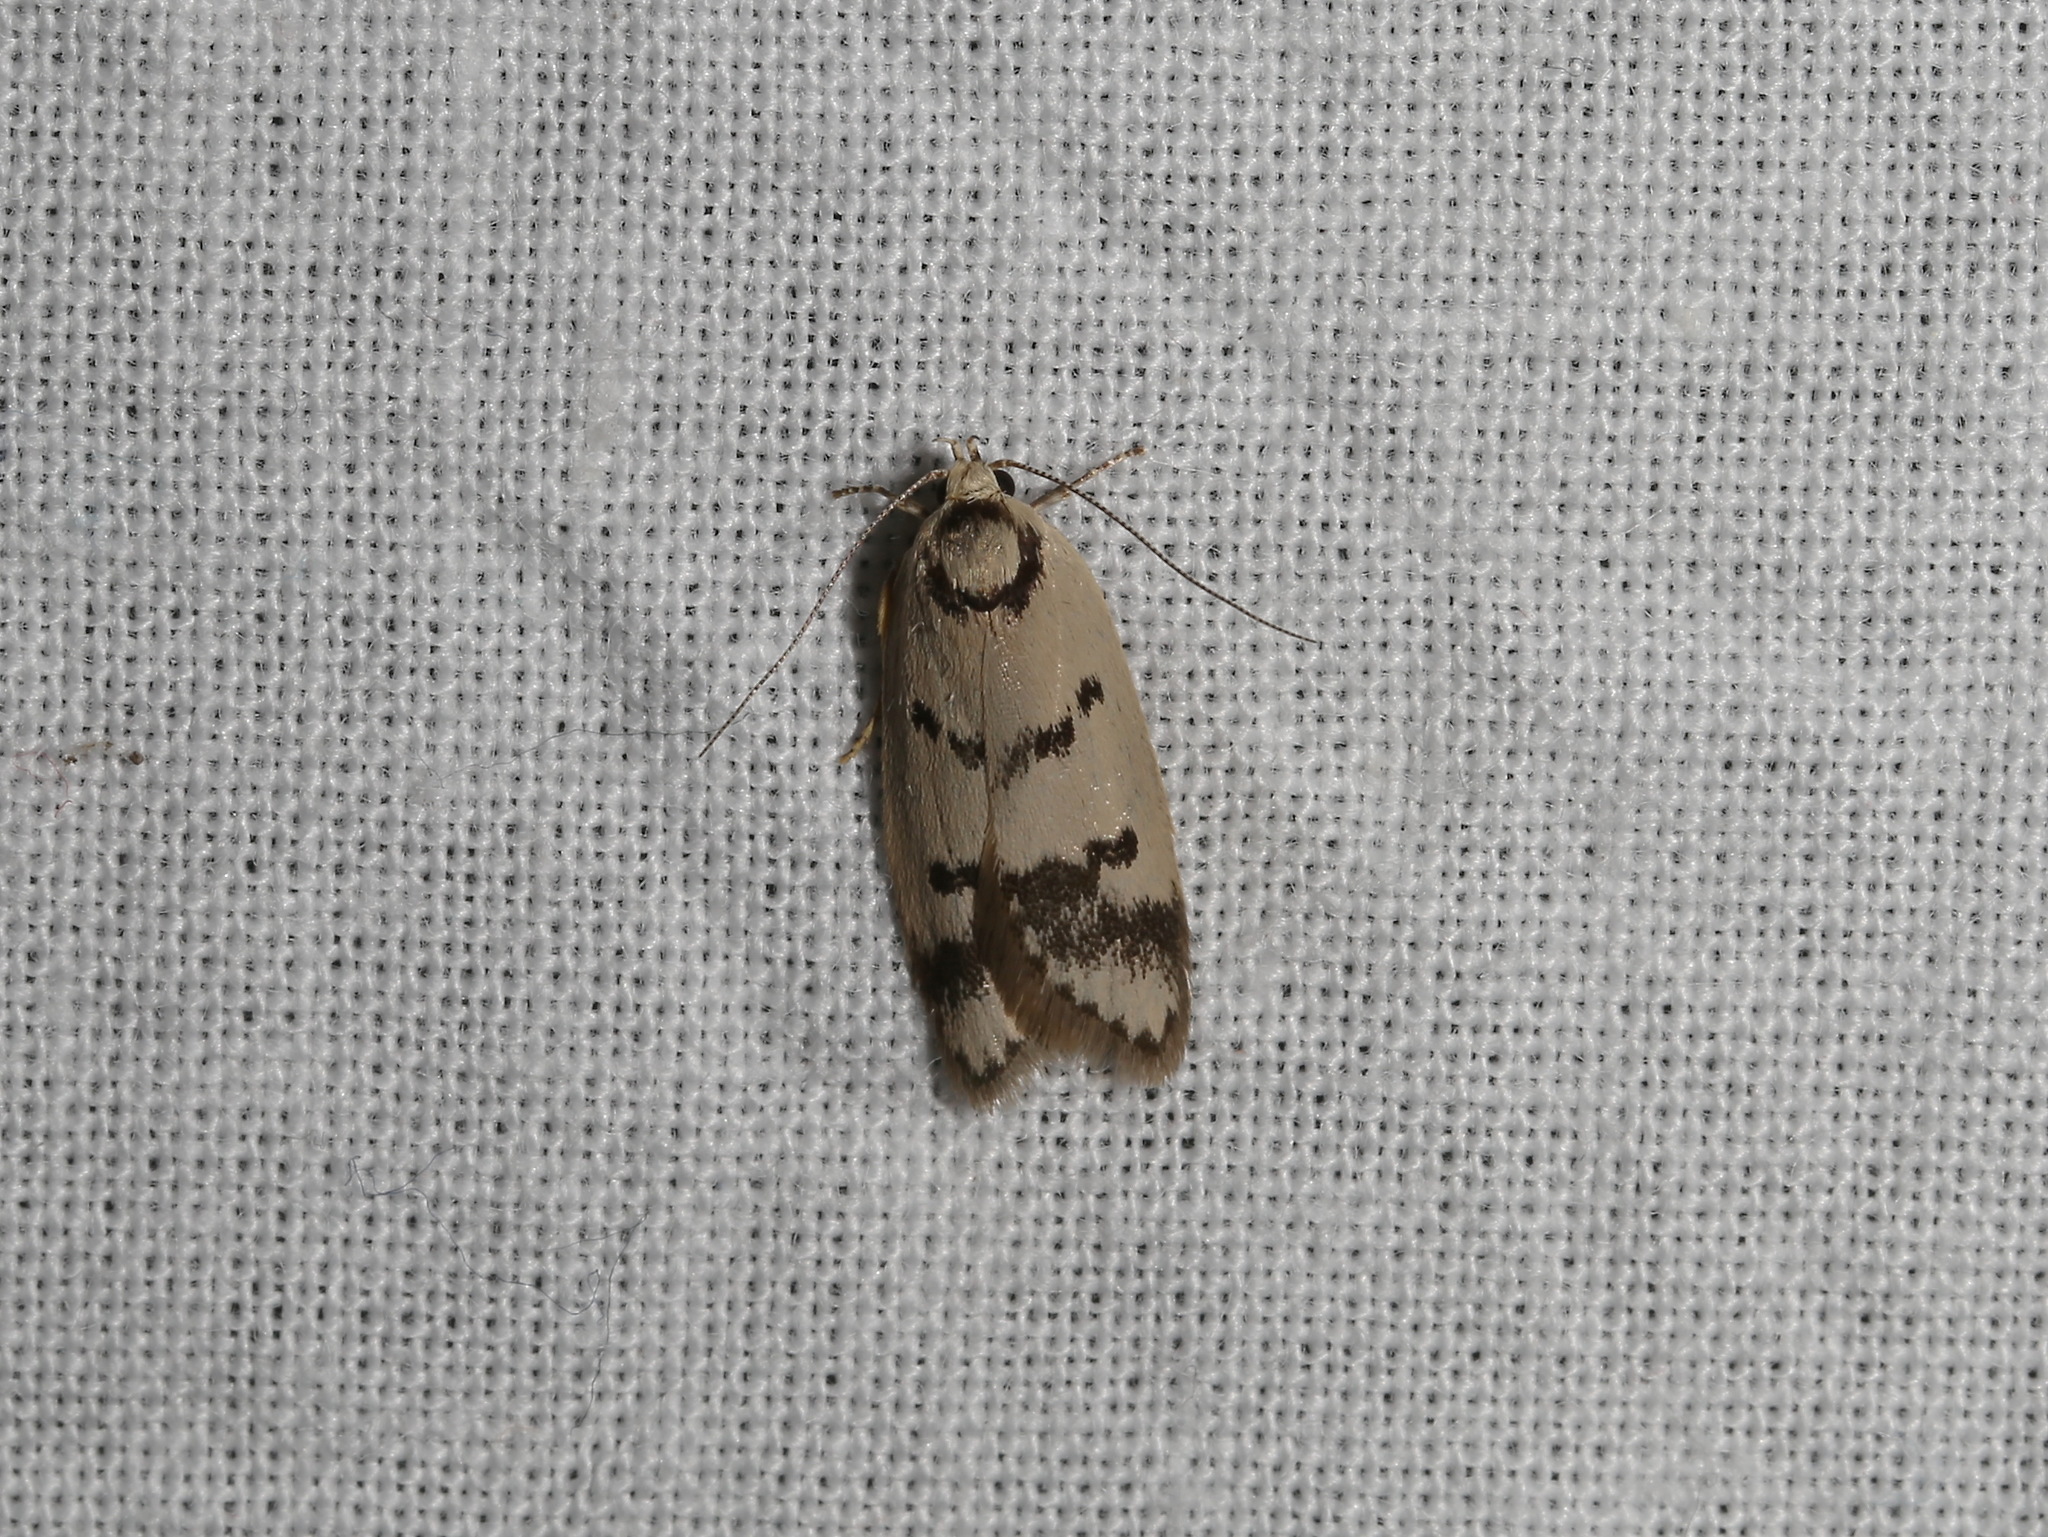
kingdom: Animalia
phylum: Arthropoda
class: Insecta
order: Lepidoptera
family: Oecophoridae
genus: Compsotropha
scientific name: Compsotropha selenias
